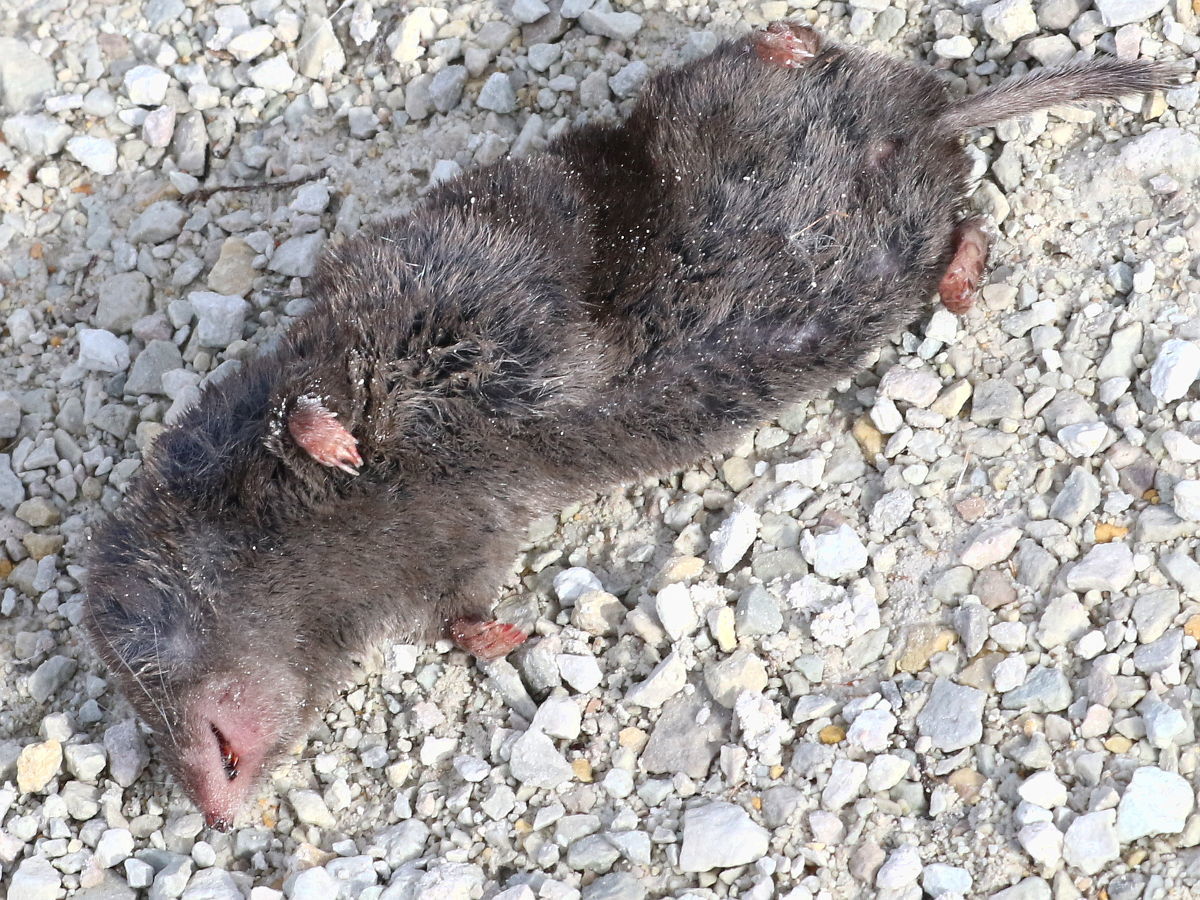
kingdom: Animalia
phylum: Chordata
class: Mammalia
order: Soricomorpha
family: Soricidae
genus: Blarina
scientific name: Blarina brevicauda
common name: Northern short-tailed shrew
